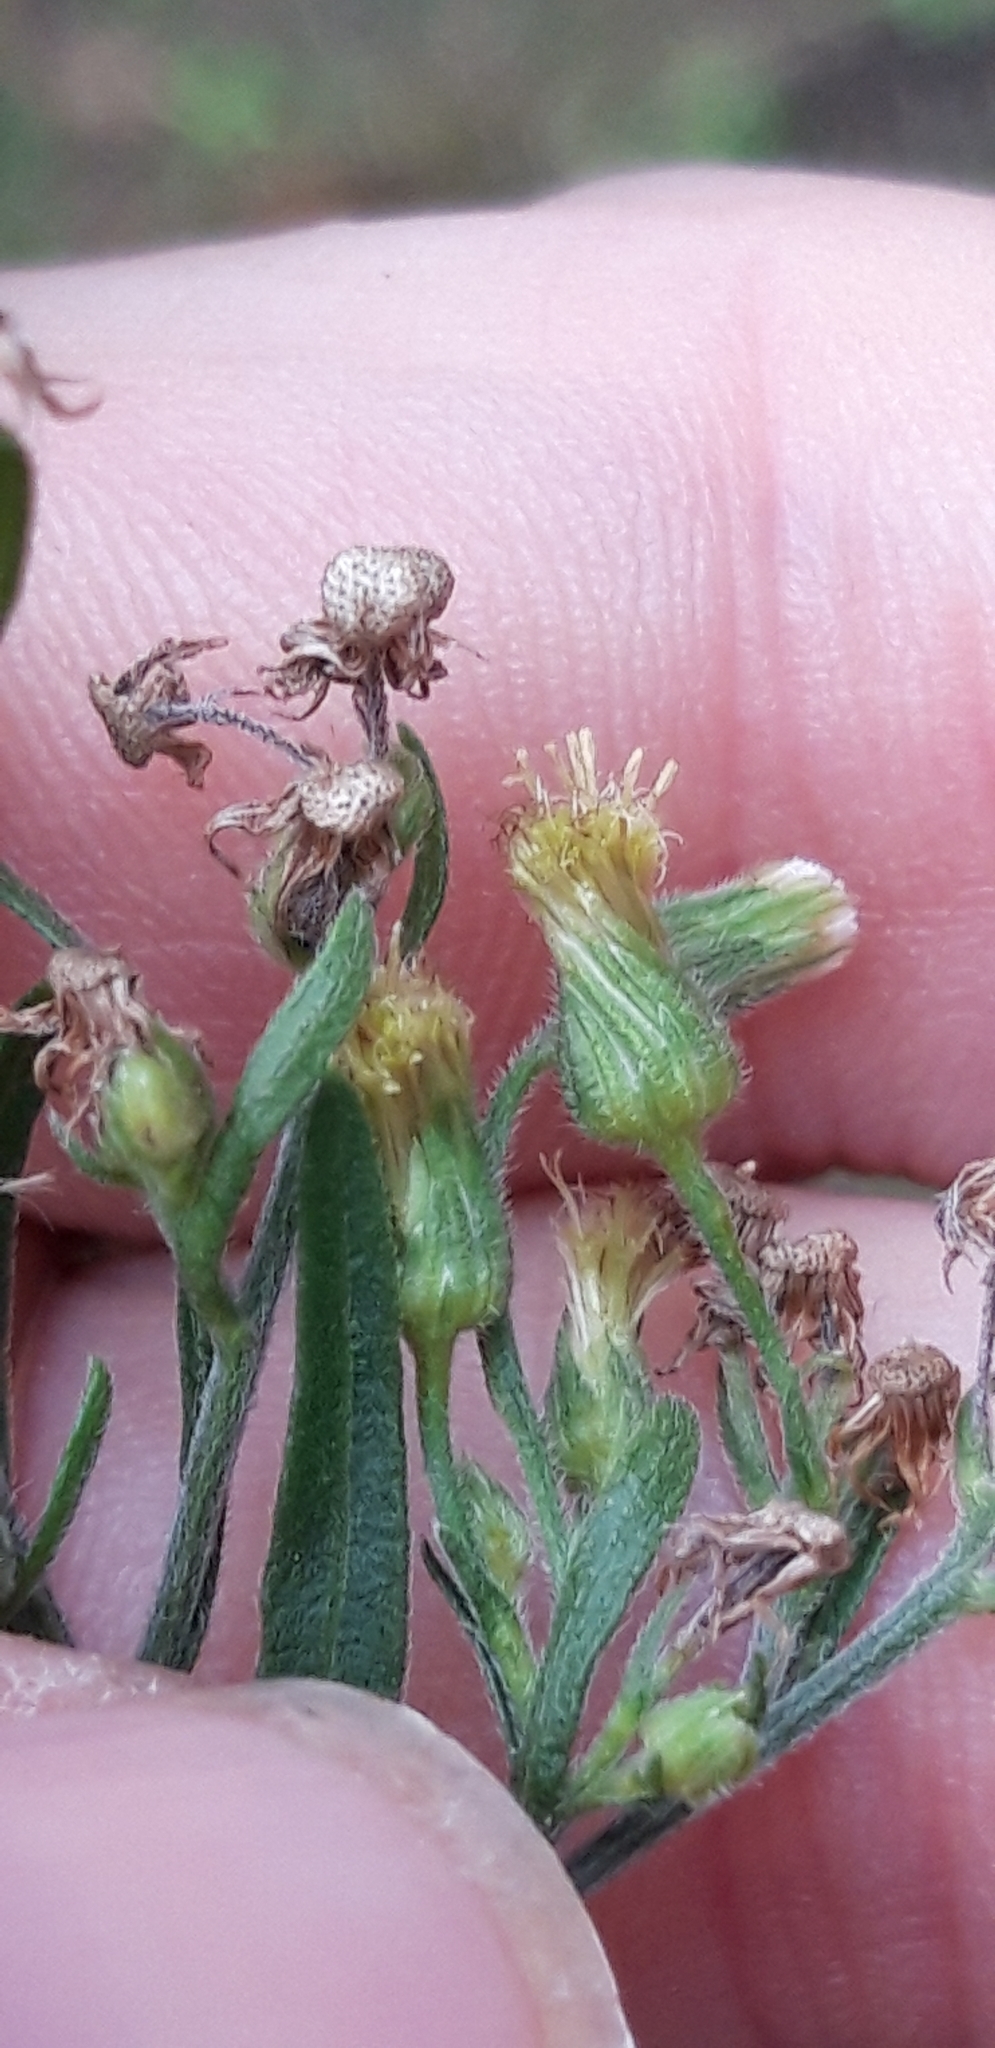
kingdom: Plantae
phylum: Tracheophyta
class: Magnoliopsida
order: Asterales
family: Asteraceae
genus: Erigeron
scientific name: Erigeron sumatrensis
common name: Daisy
